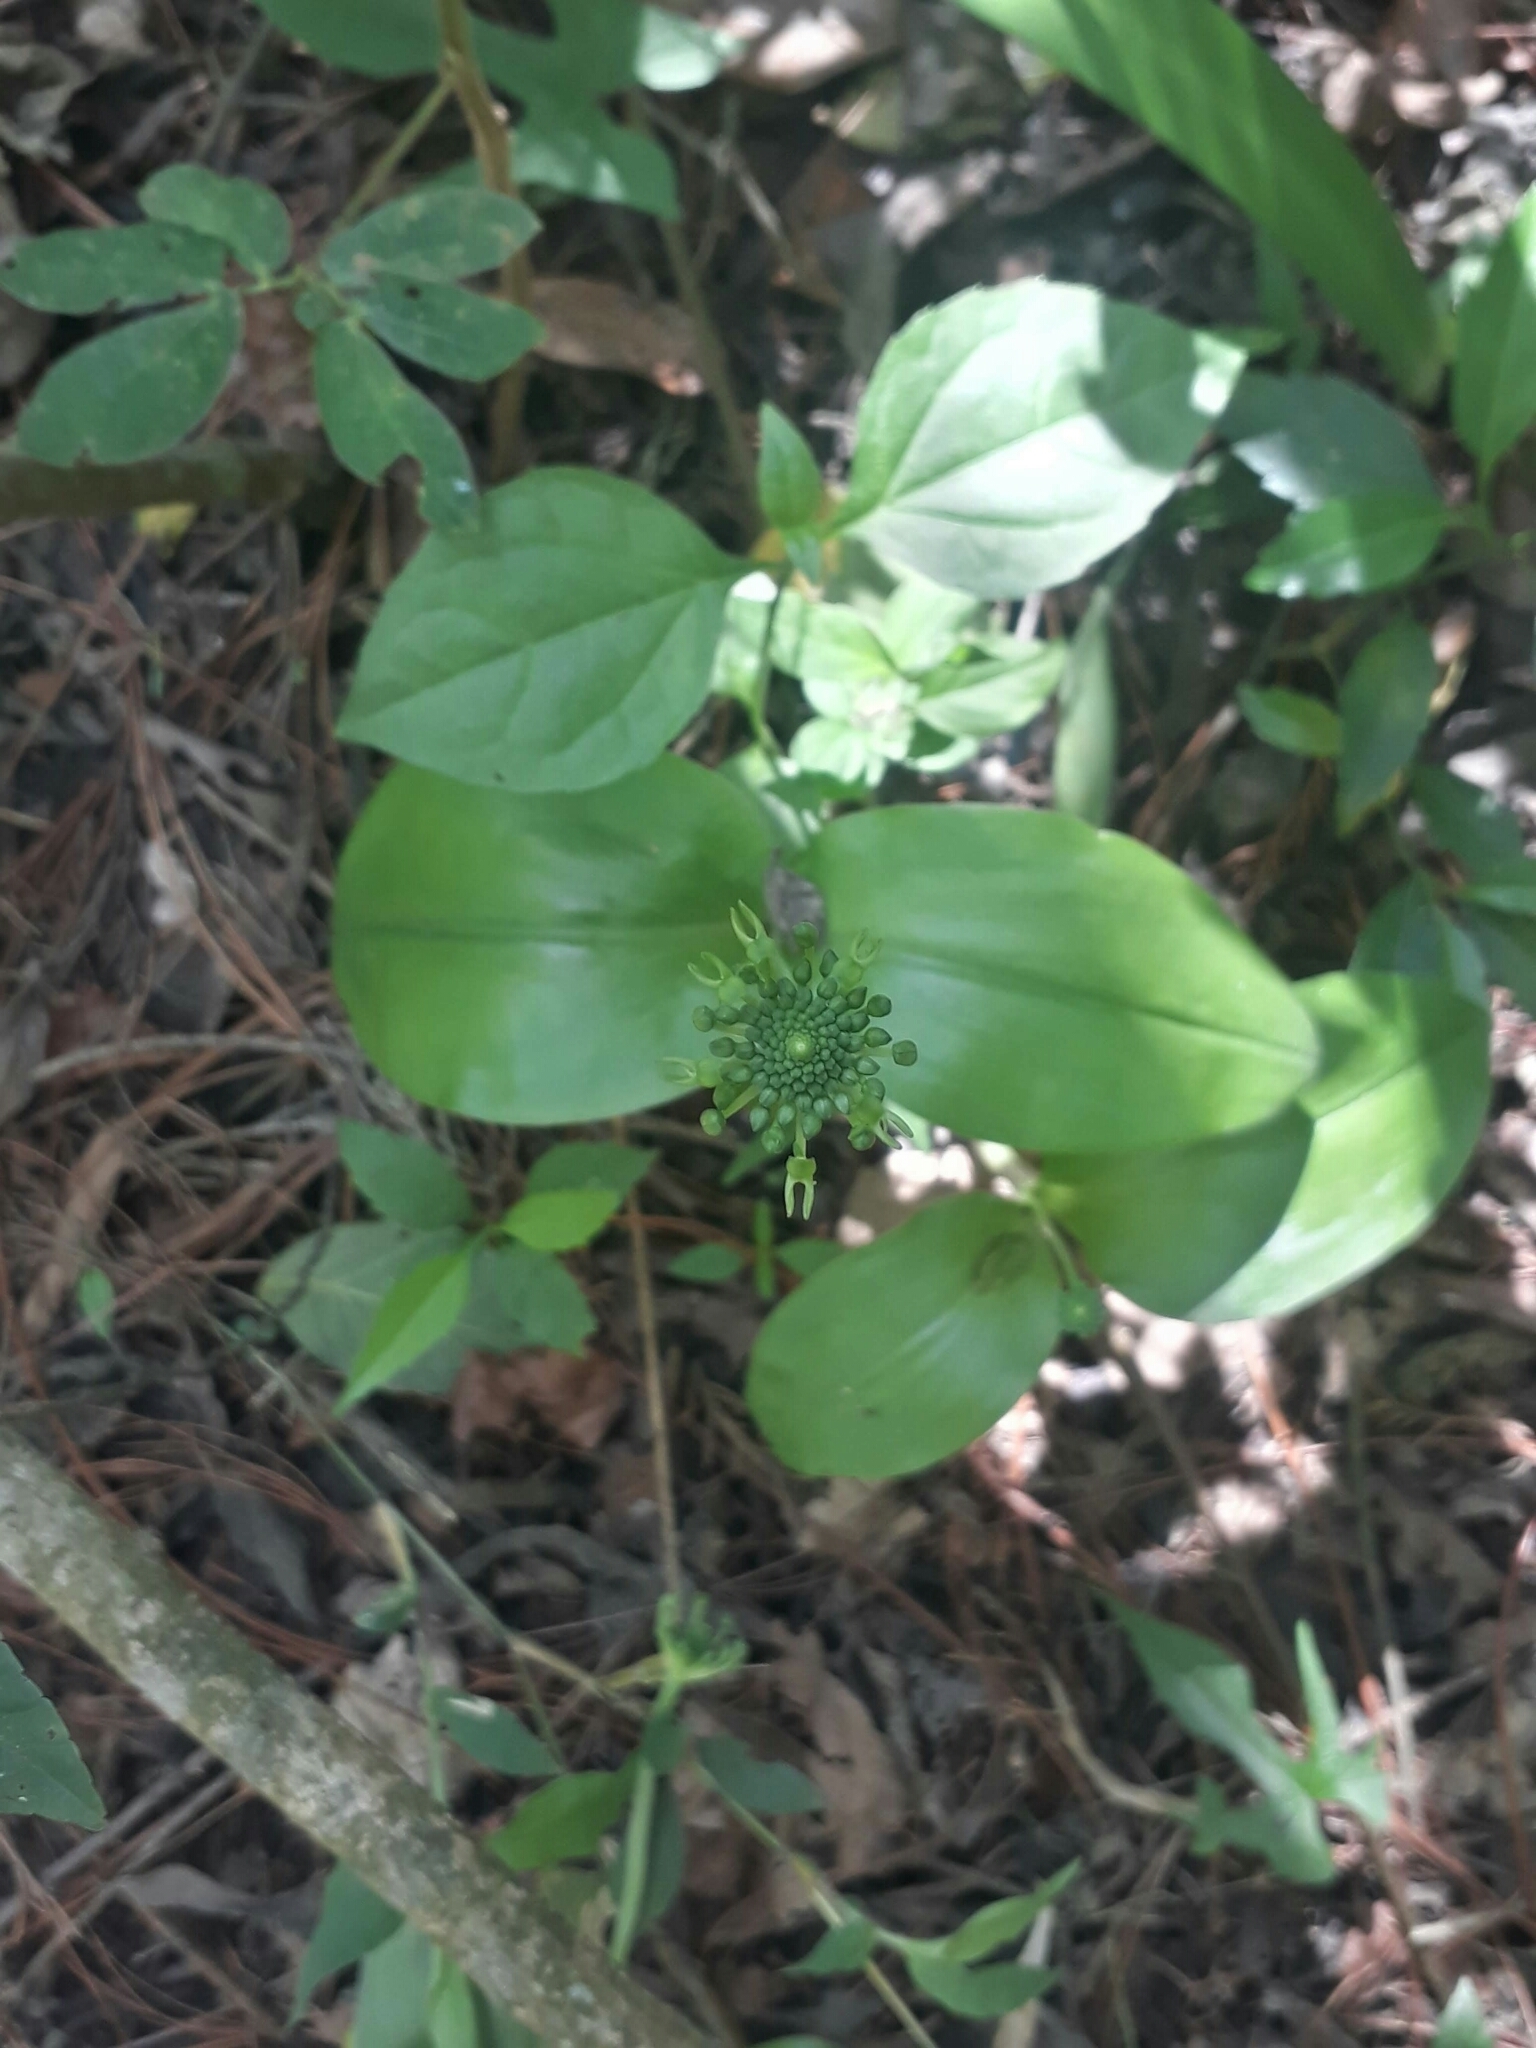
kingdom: Plantae
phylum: Tracheophyta
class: Liliopsida
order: Asparagales
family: Orchidaceae
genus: Malaxis
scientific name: Malaxis brachyrrhynchos
